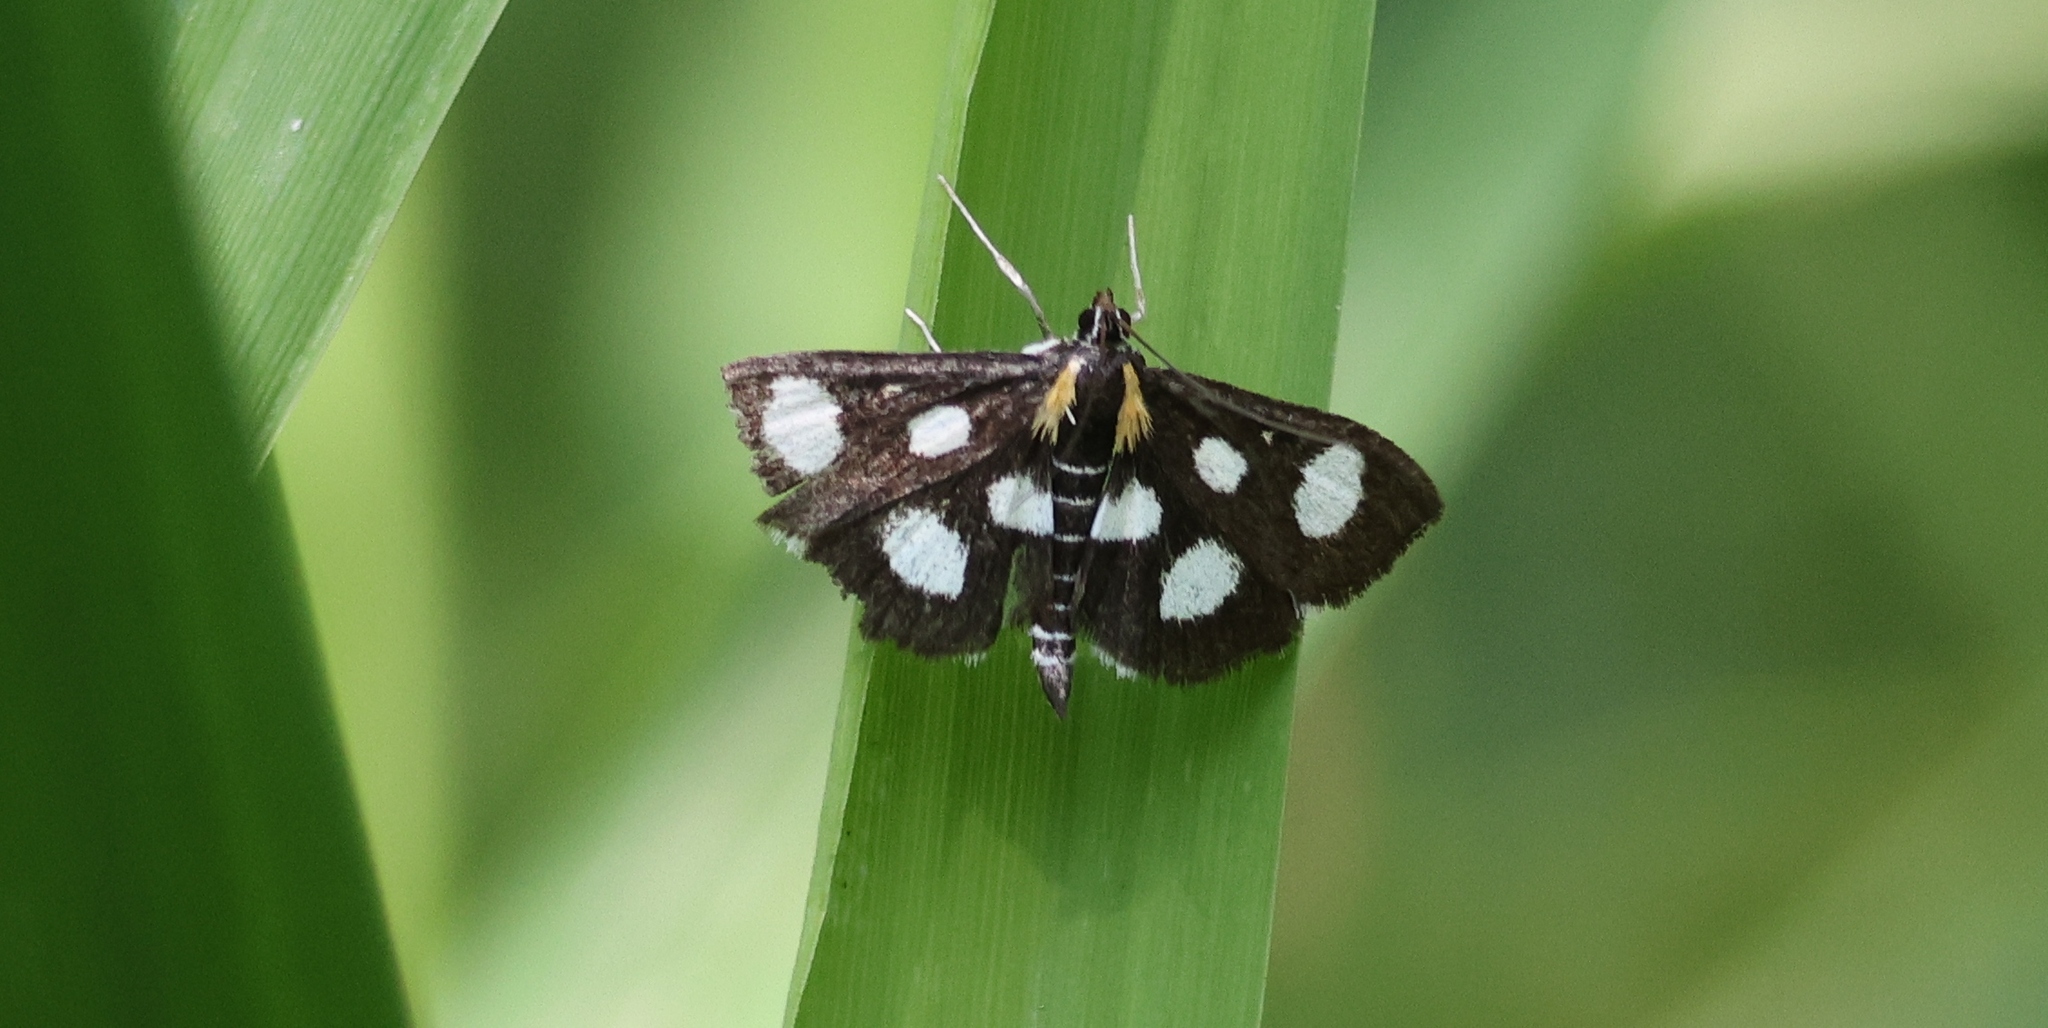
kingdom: Animalia
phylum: Arthropoda
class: Insecta
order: Lepidoptera
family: Crambidae
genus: Anania
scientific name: Anania funebris
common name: White-spotted sable moth
